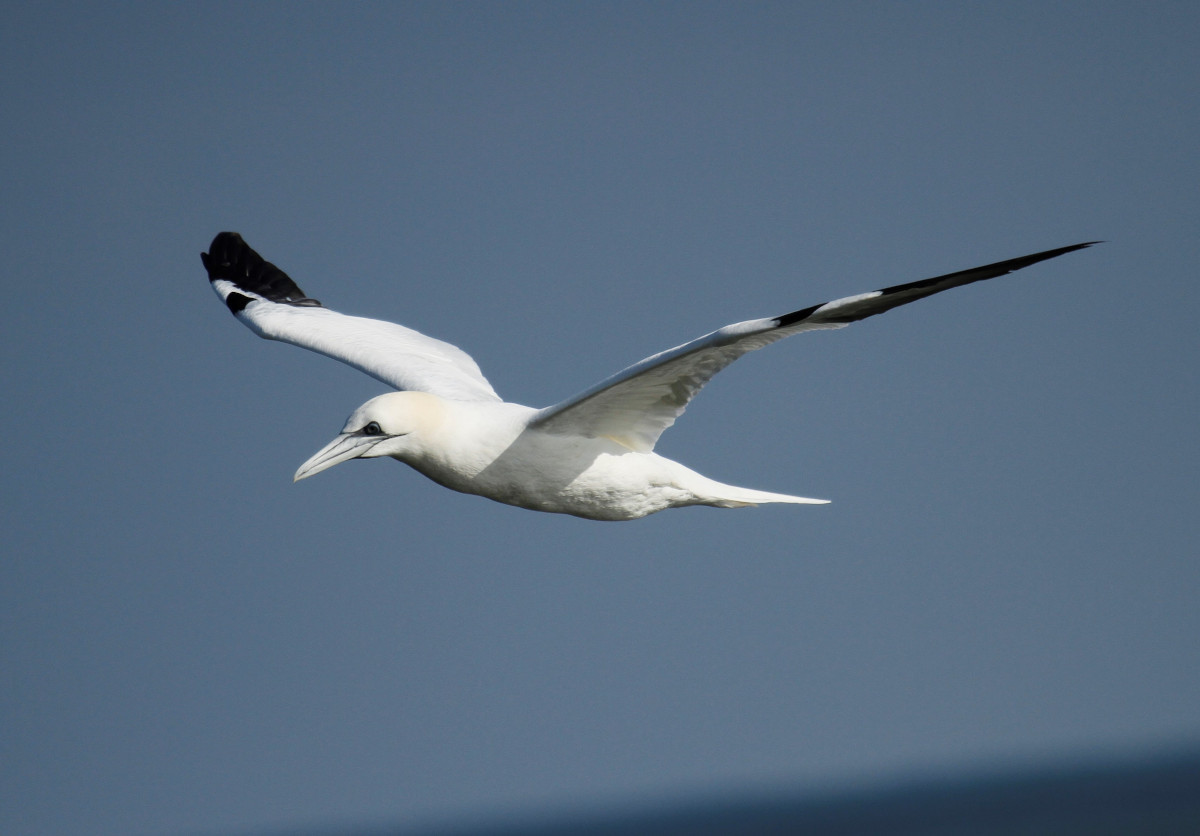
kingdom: Animalia
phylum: Chordata
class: Aves
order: Suliformes
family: Sulidae
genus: Morus
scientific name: Morus bassanus
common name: Northern gannet
